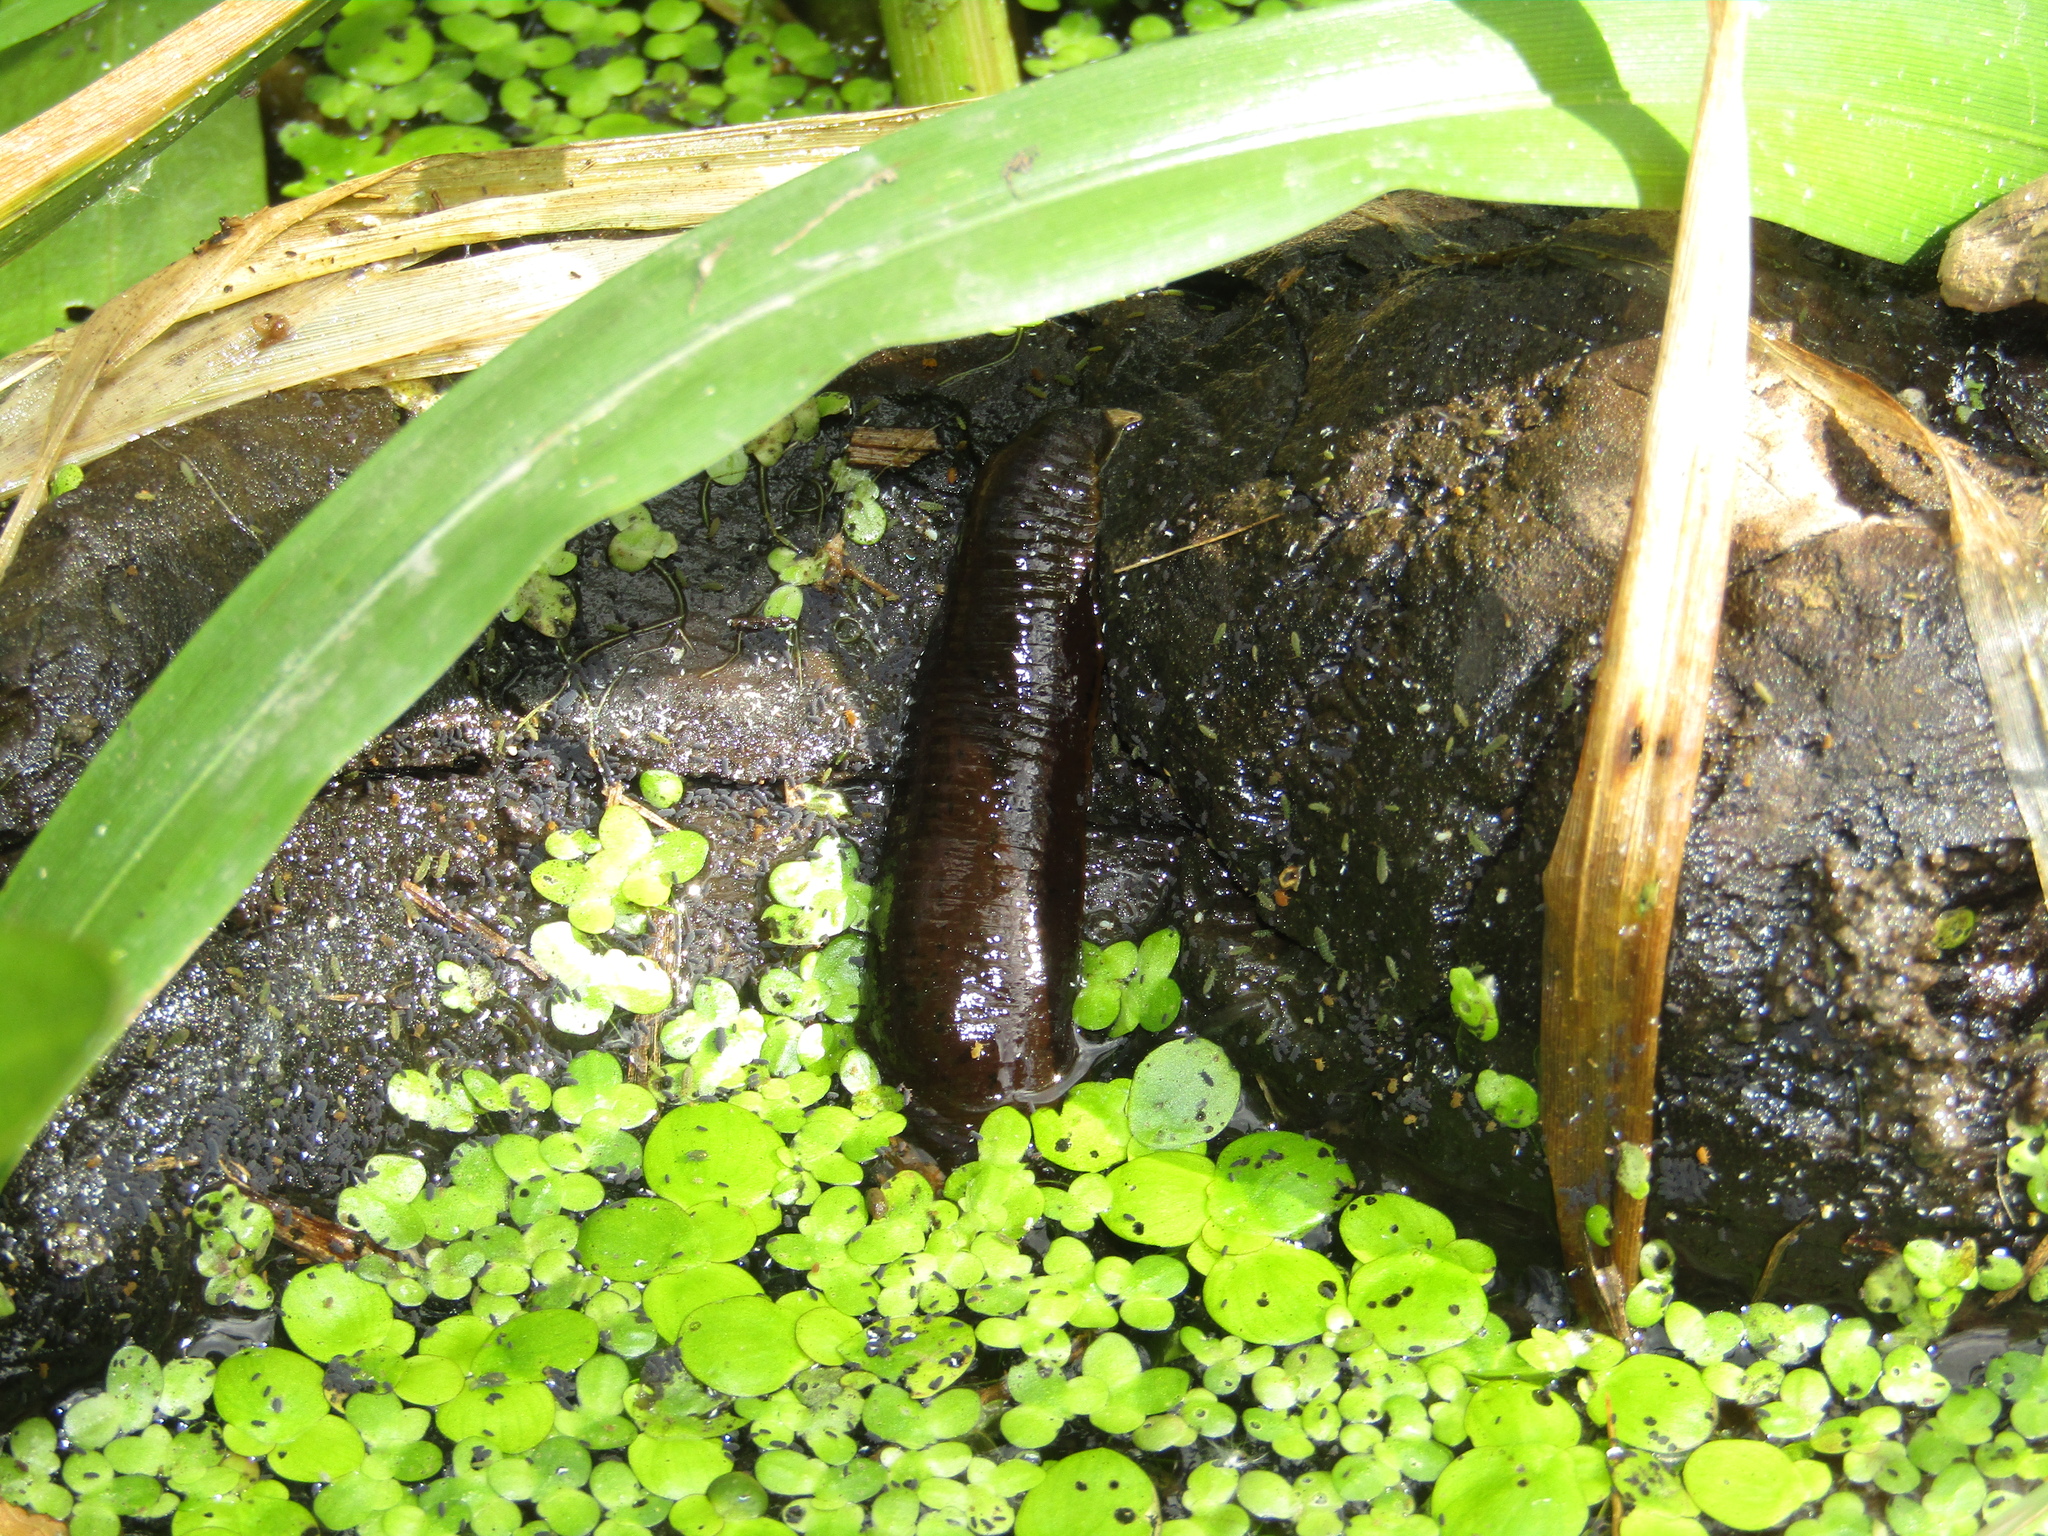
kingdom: Animalia
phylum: Annelida
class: Clitellata
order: Arhynchobdellida
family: Haemopidae
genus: Haemopis
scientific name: Haemopis sanguisuga
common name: Horse leech
